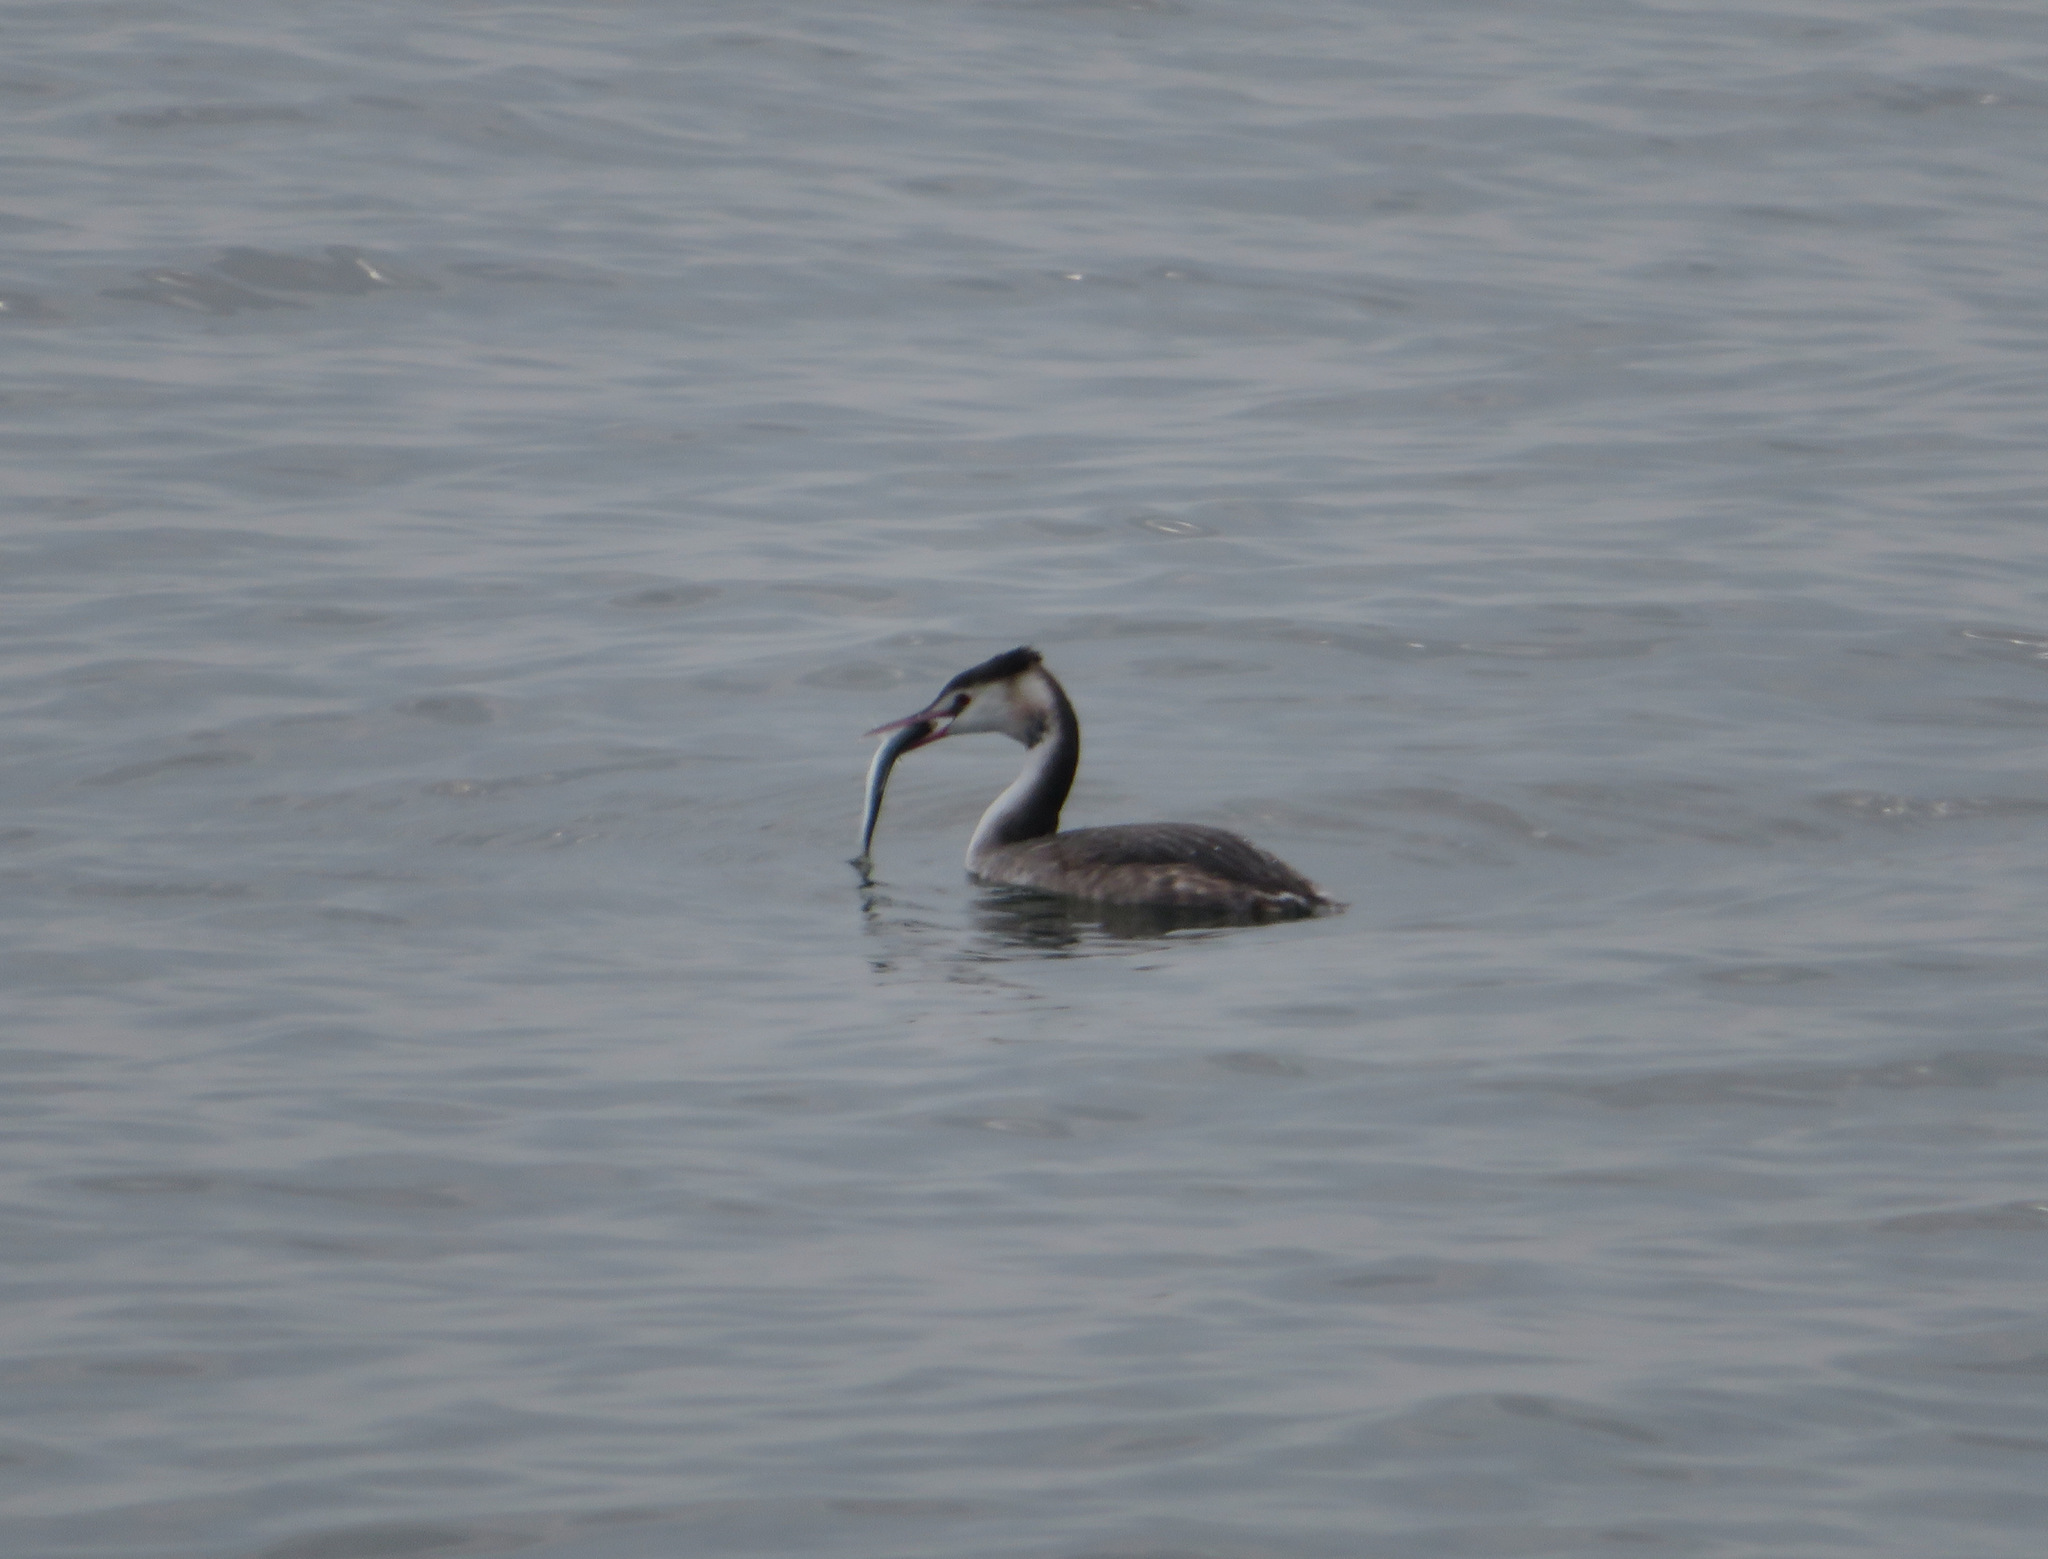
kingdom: Animalia
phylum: Chordata
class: Aves
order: Podicipediformes
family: Podicipedidae
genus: Podiceps
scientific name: Podiceps cristatus
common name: Great crested grebe
